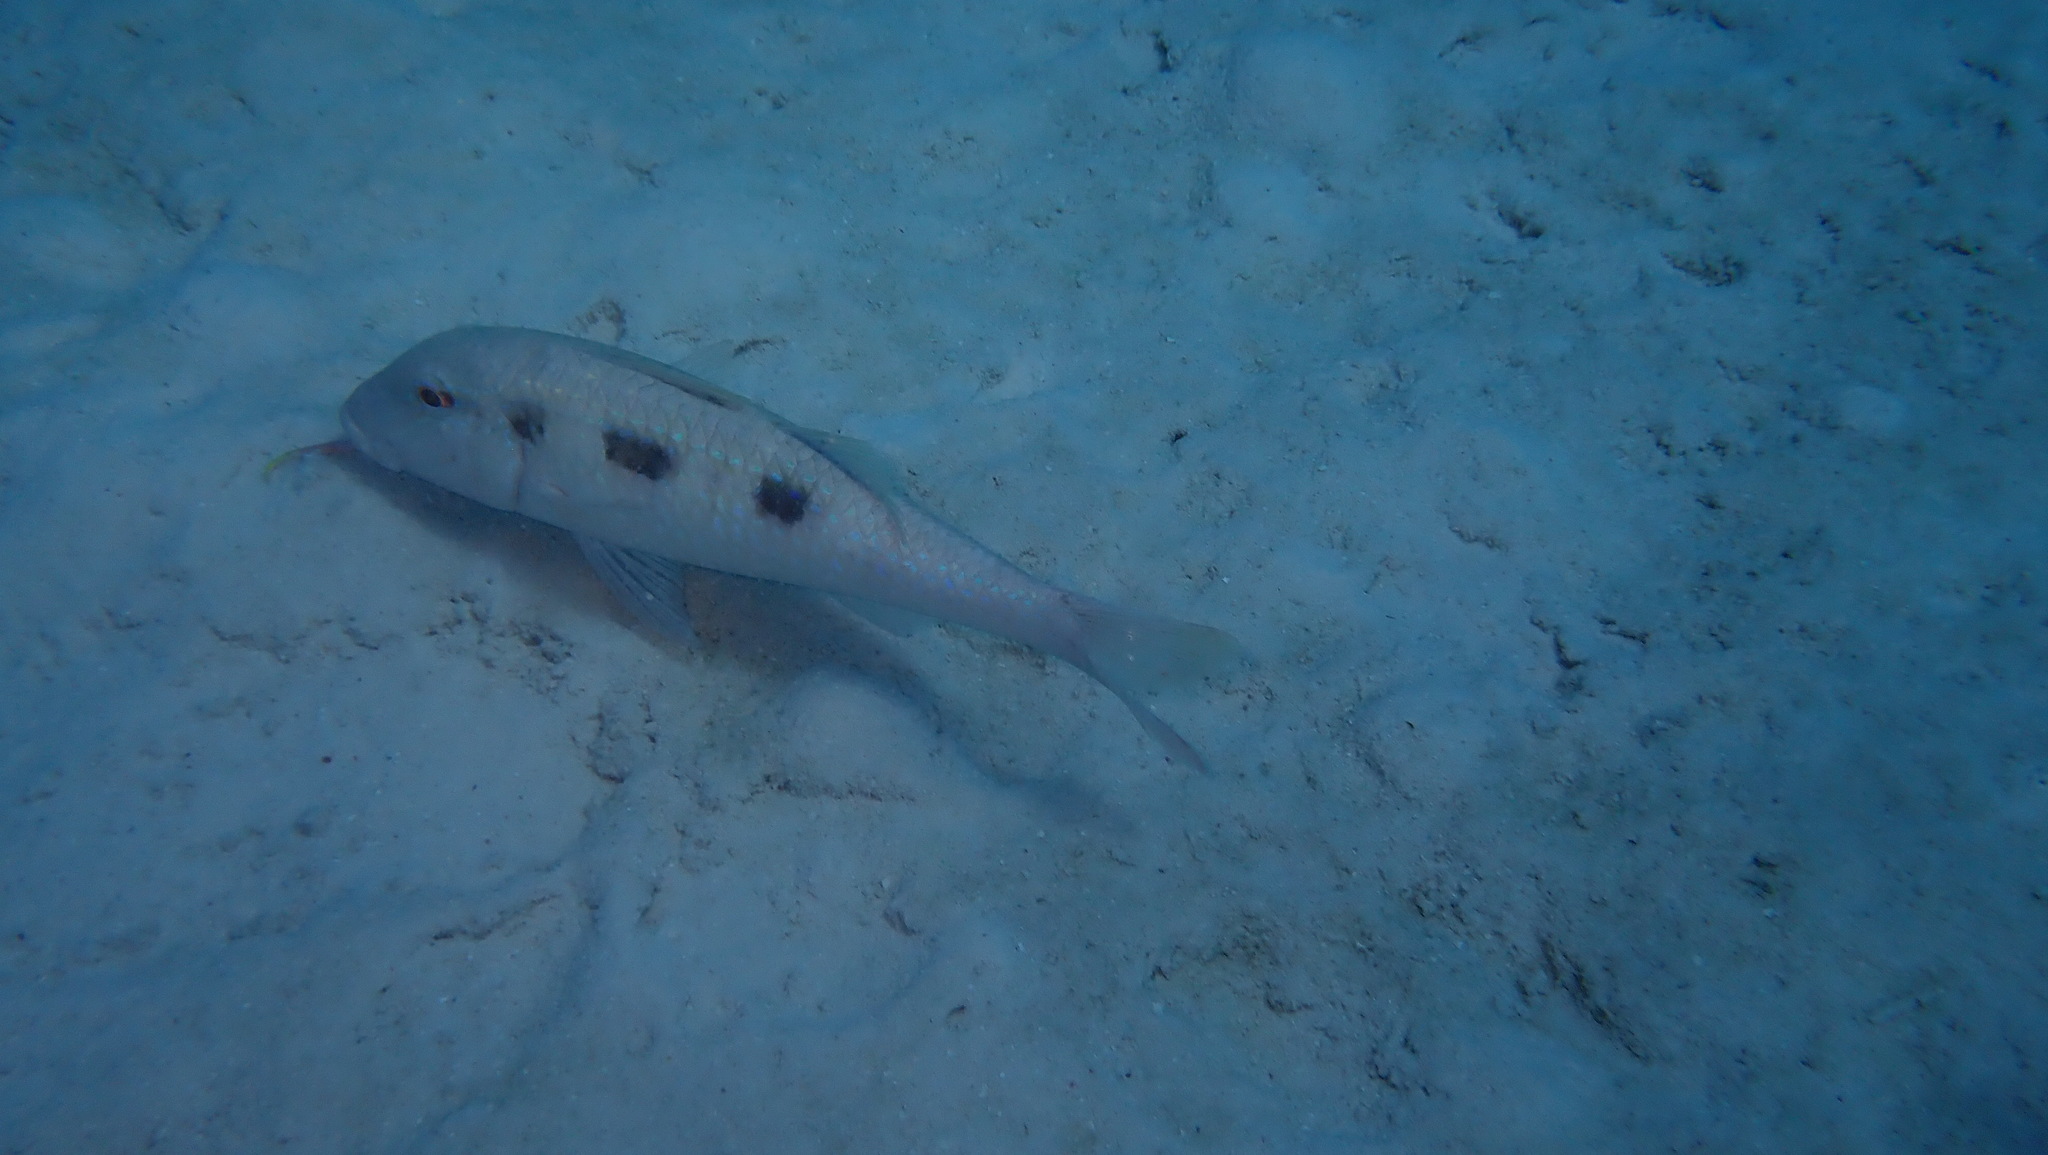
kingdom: Animalia
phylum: Chordata
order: Perciformes
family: Mullidae
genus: Pseudupeneus
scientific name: Pseudupeneus maculatus
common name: Spotted goatfish
